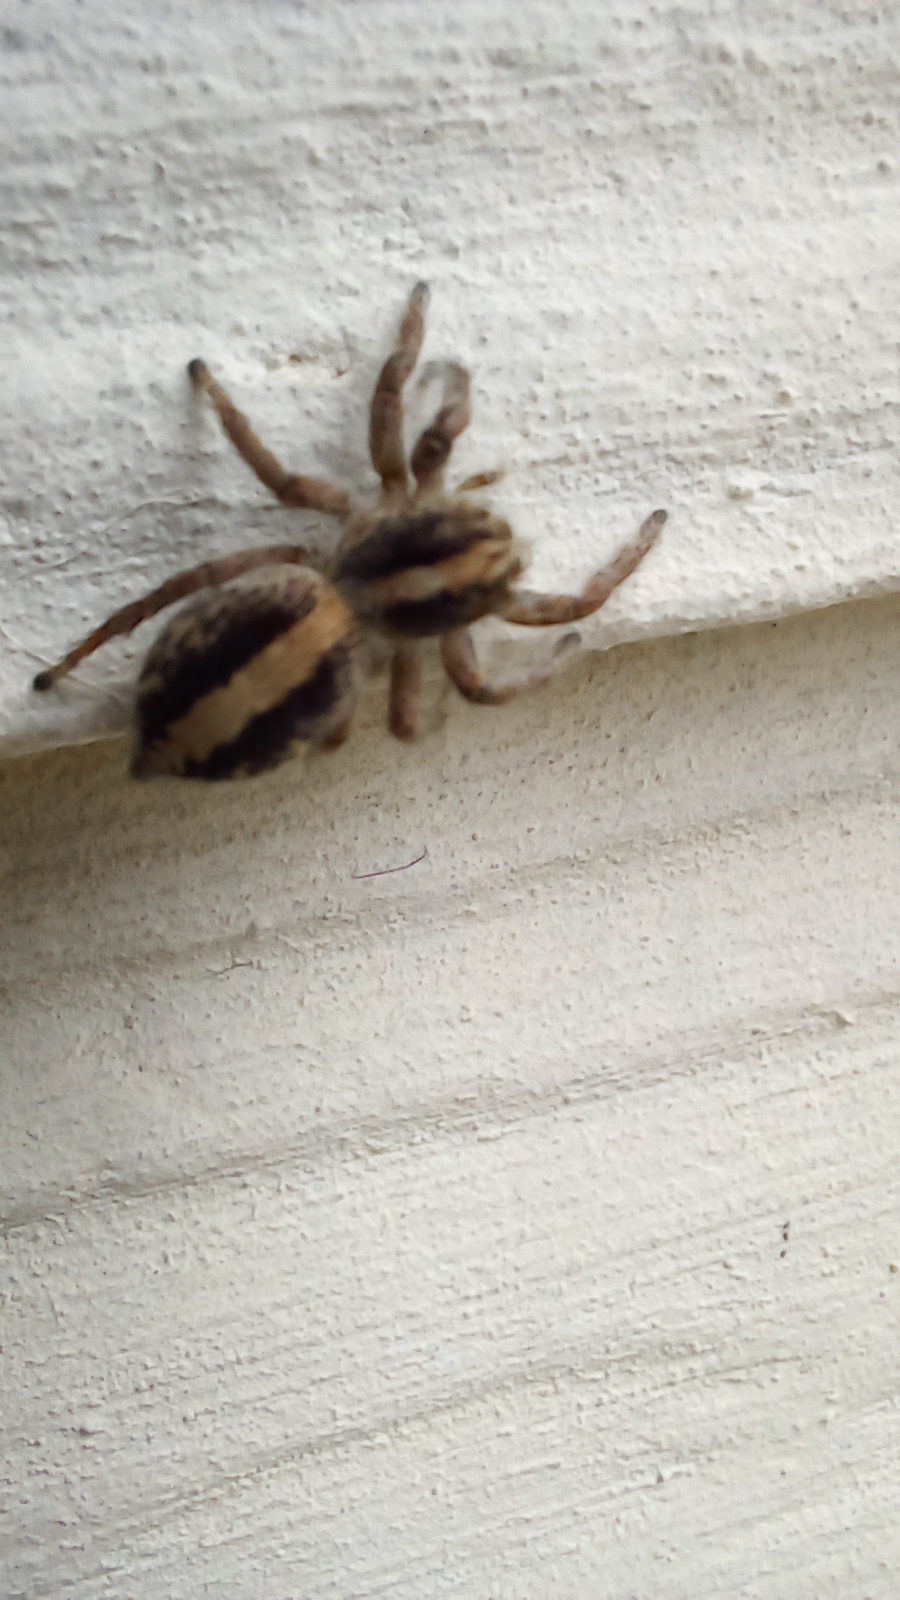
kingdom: Animalia
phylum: Arthropoda
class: Arachnida
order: Araneae
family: Salticidae
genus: Megafreya
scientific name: Megafreya sutrix
